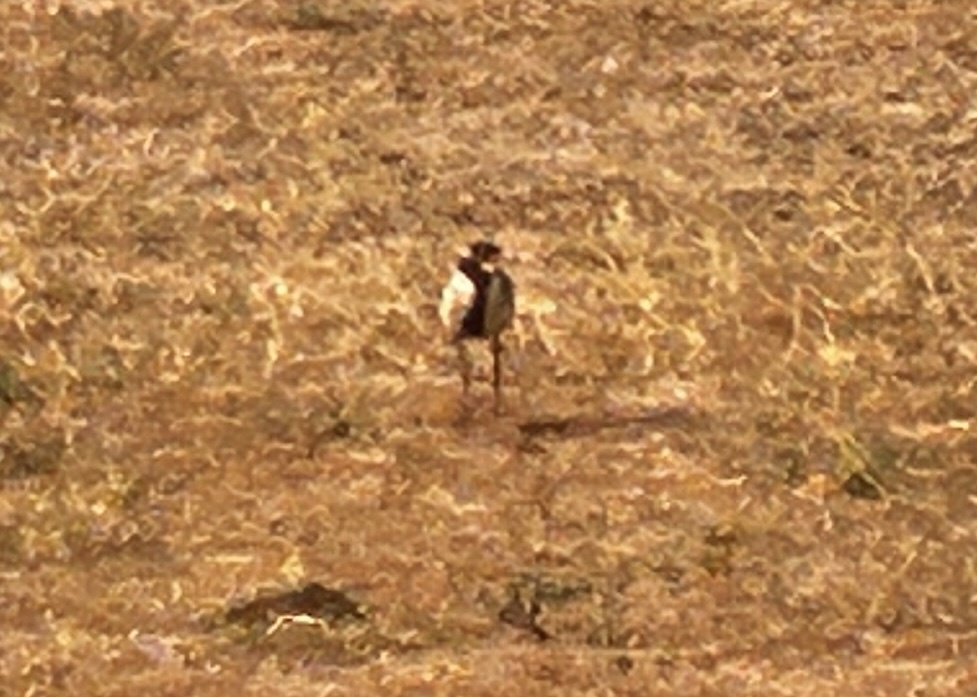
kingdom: Animalia
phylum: Chordata
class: Aves
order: Charadriiformes
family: Charadriidae
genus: Vanellus
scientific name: Vanellus tectus
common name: Black-headed lapwing
